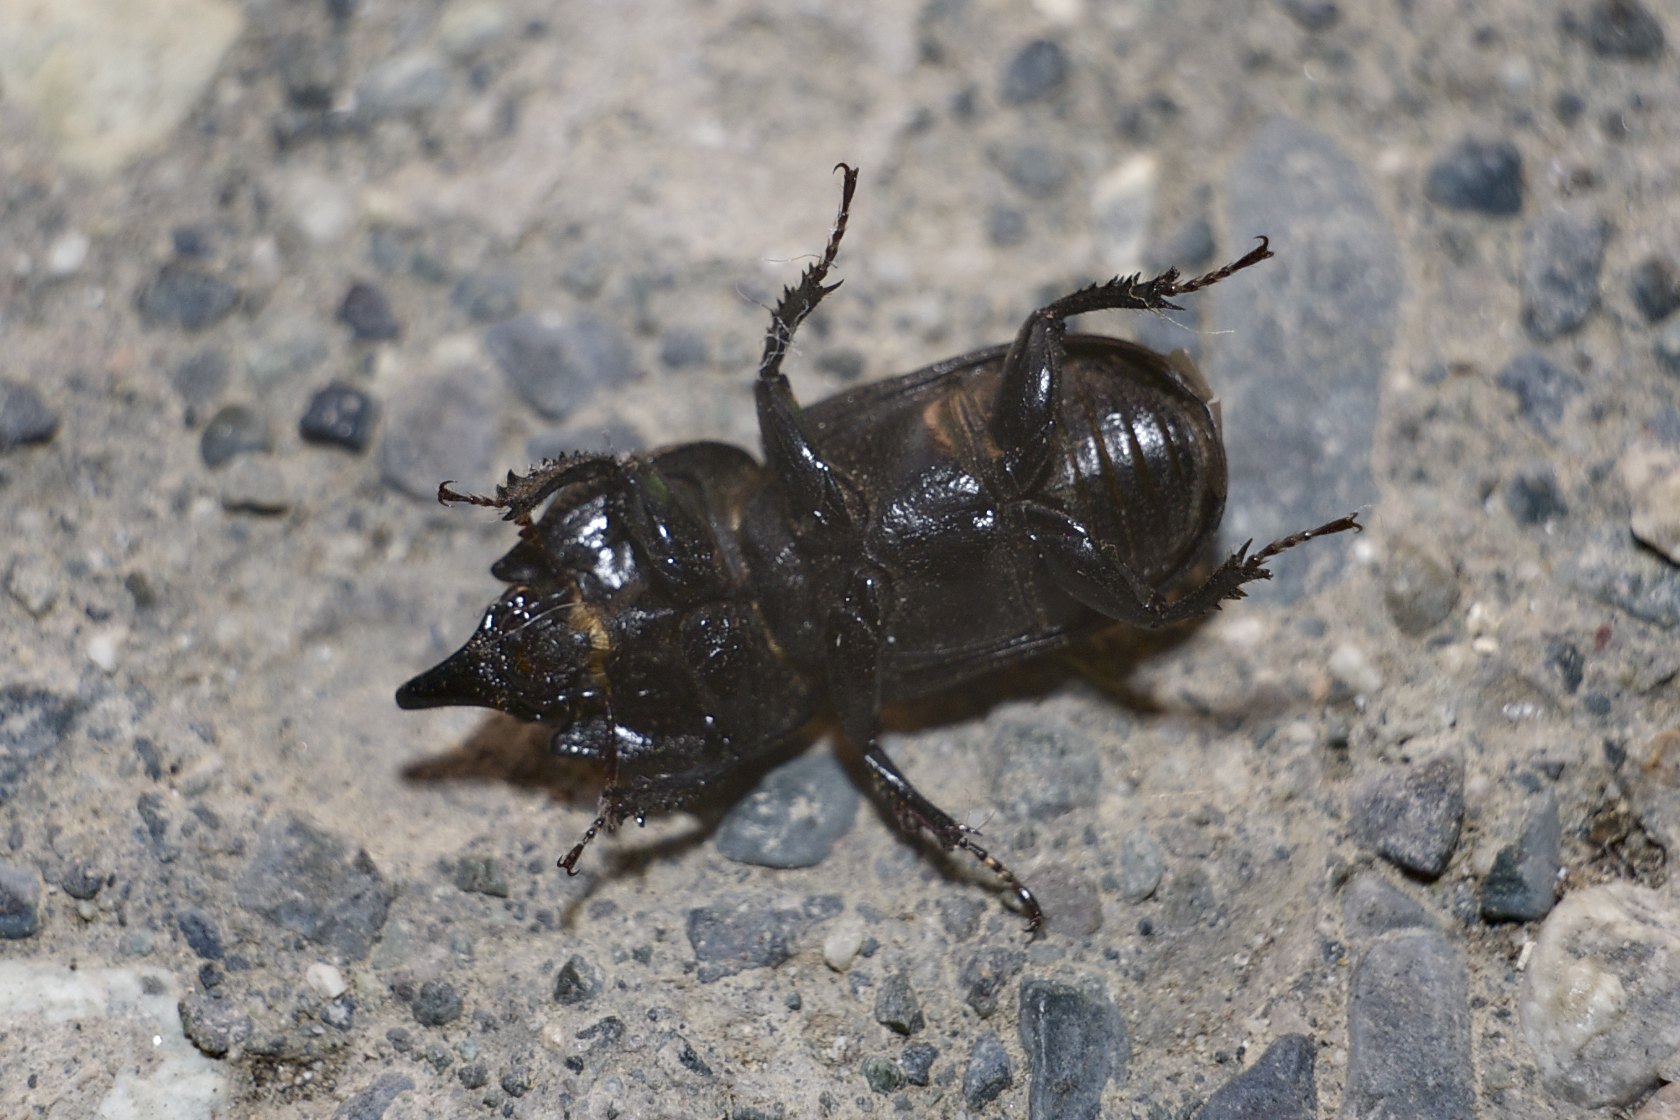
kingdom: Animalia
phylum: Arthropoda
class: Insecta
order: Coleoptera
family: Lucanidae
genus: Sinodendron
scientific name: Sinodendron rugosum
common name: Rugose stag beelte
